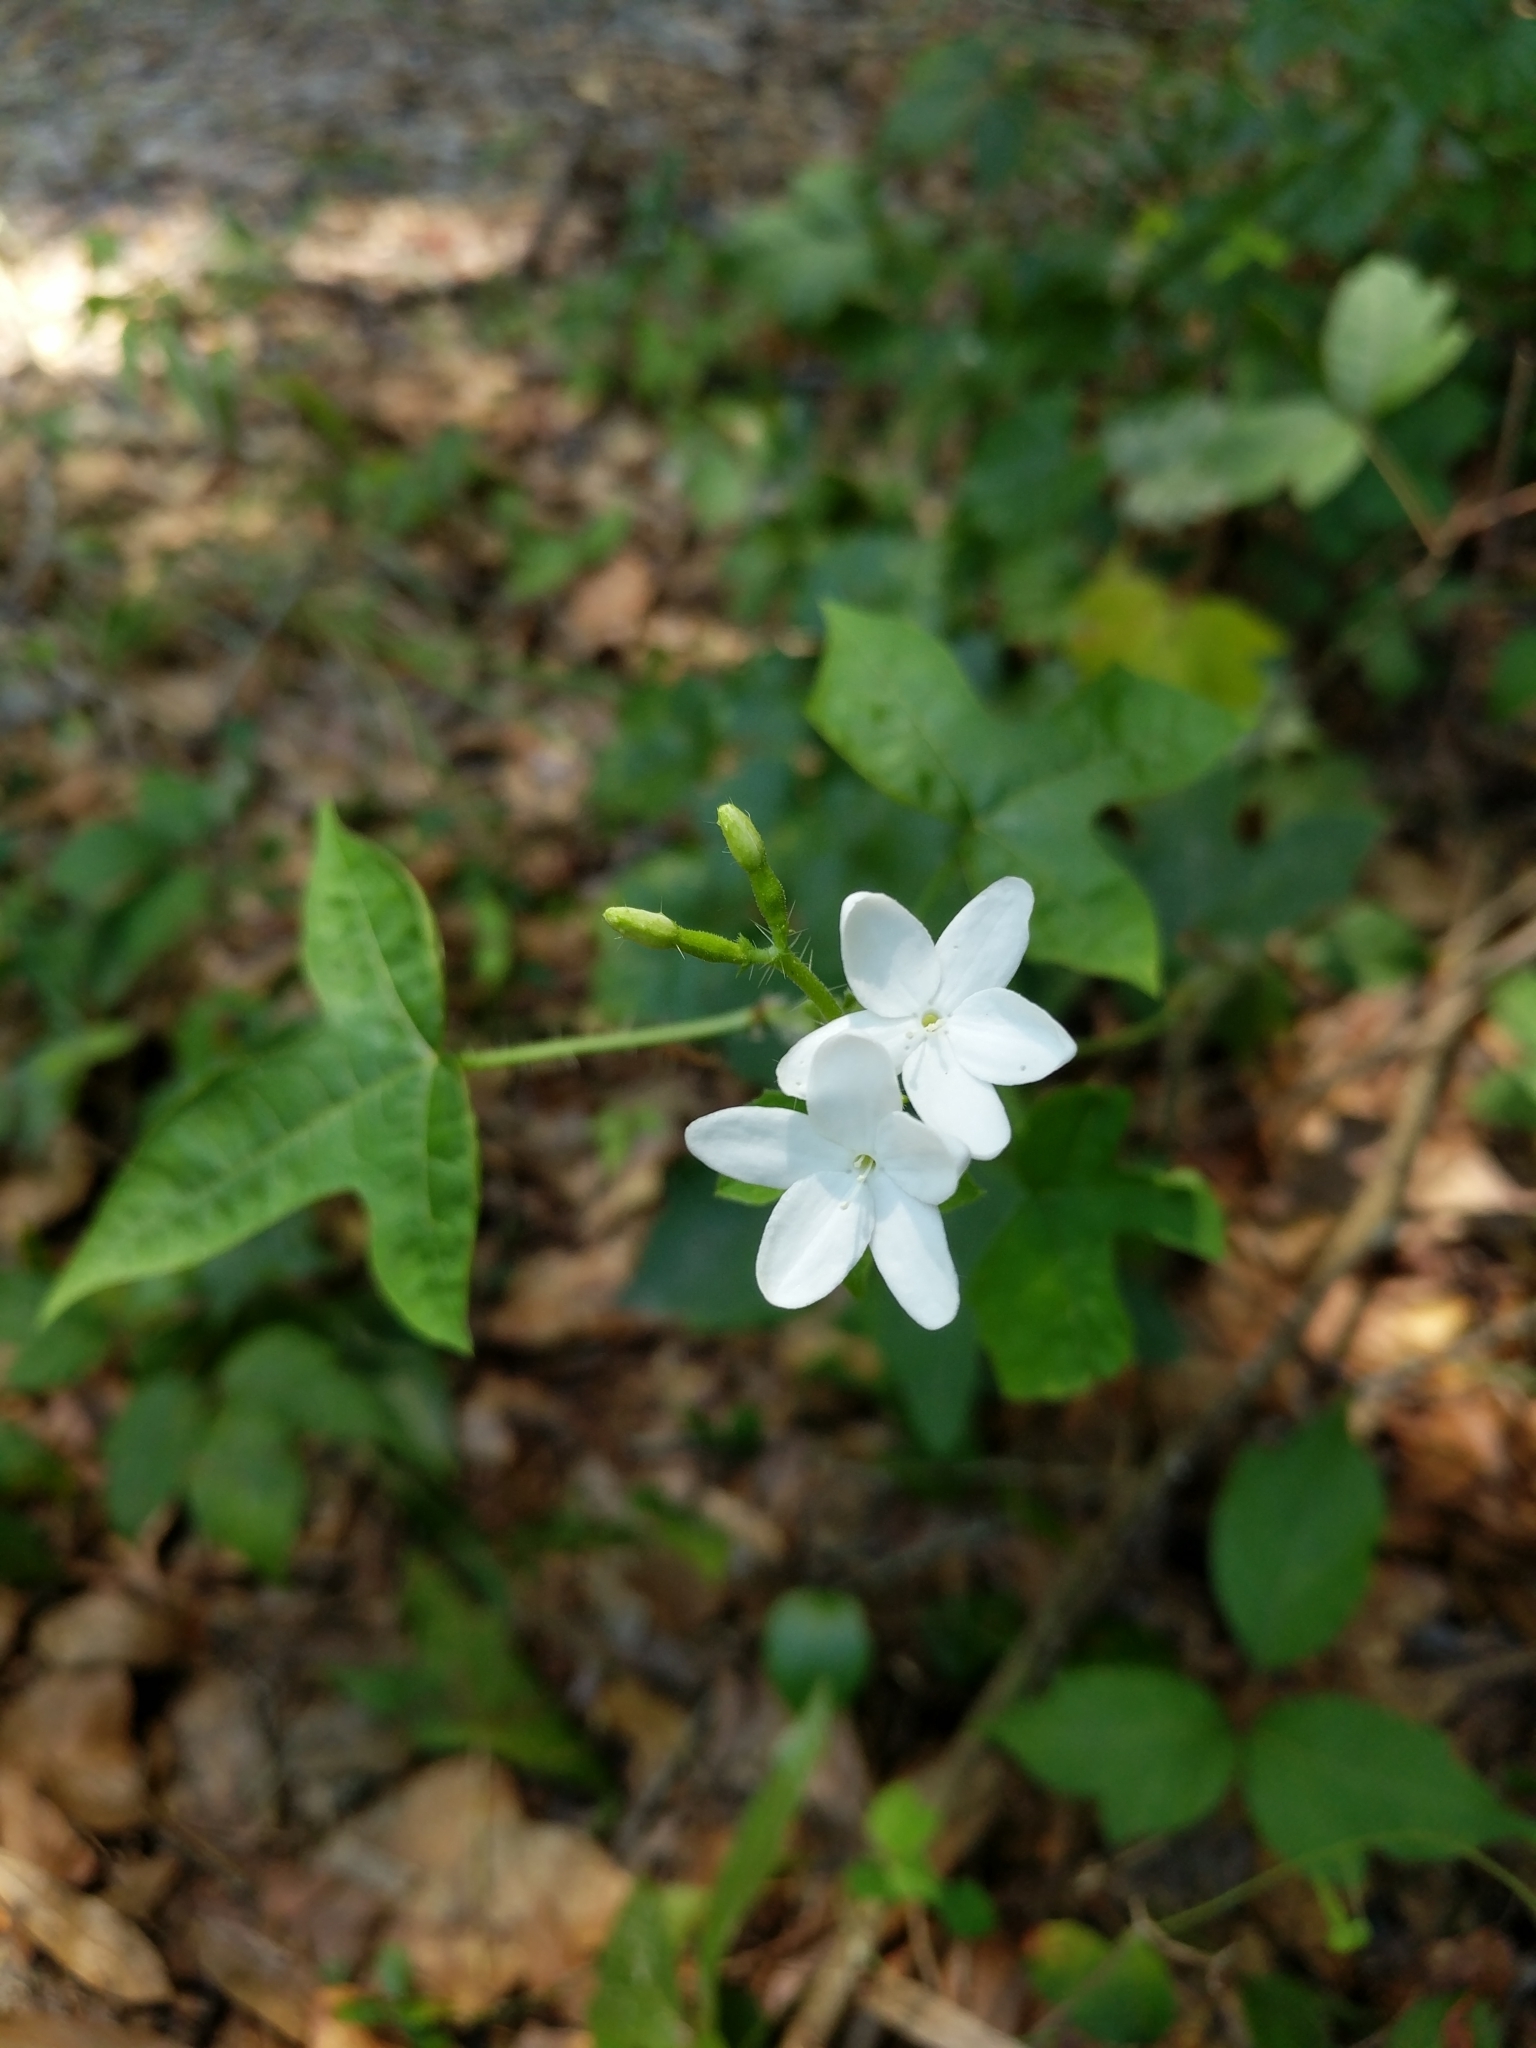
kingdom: Plantae
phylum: Tracheophyta
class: Magnoliopsida
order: Malpighiales
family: Euphorbiaceae
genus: Cnidoscolus
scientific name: Cnidoscolus stimulosus
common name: Bull-nettle
